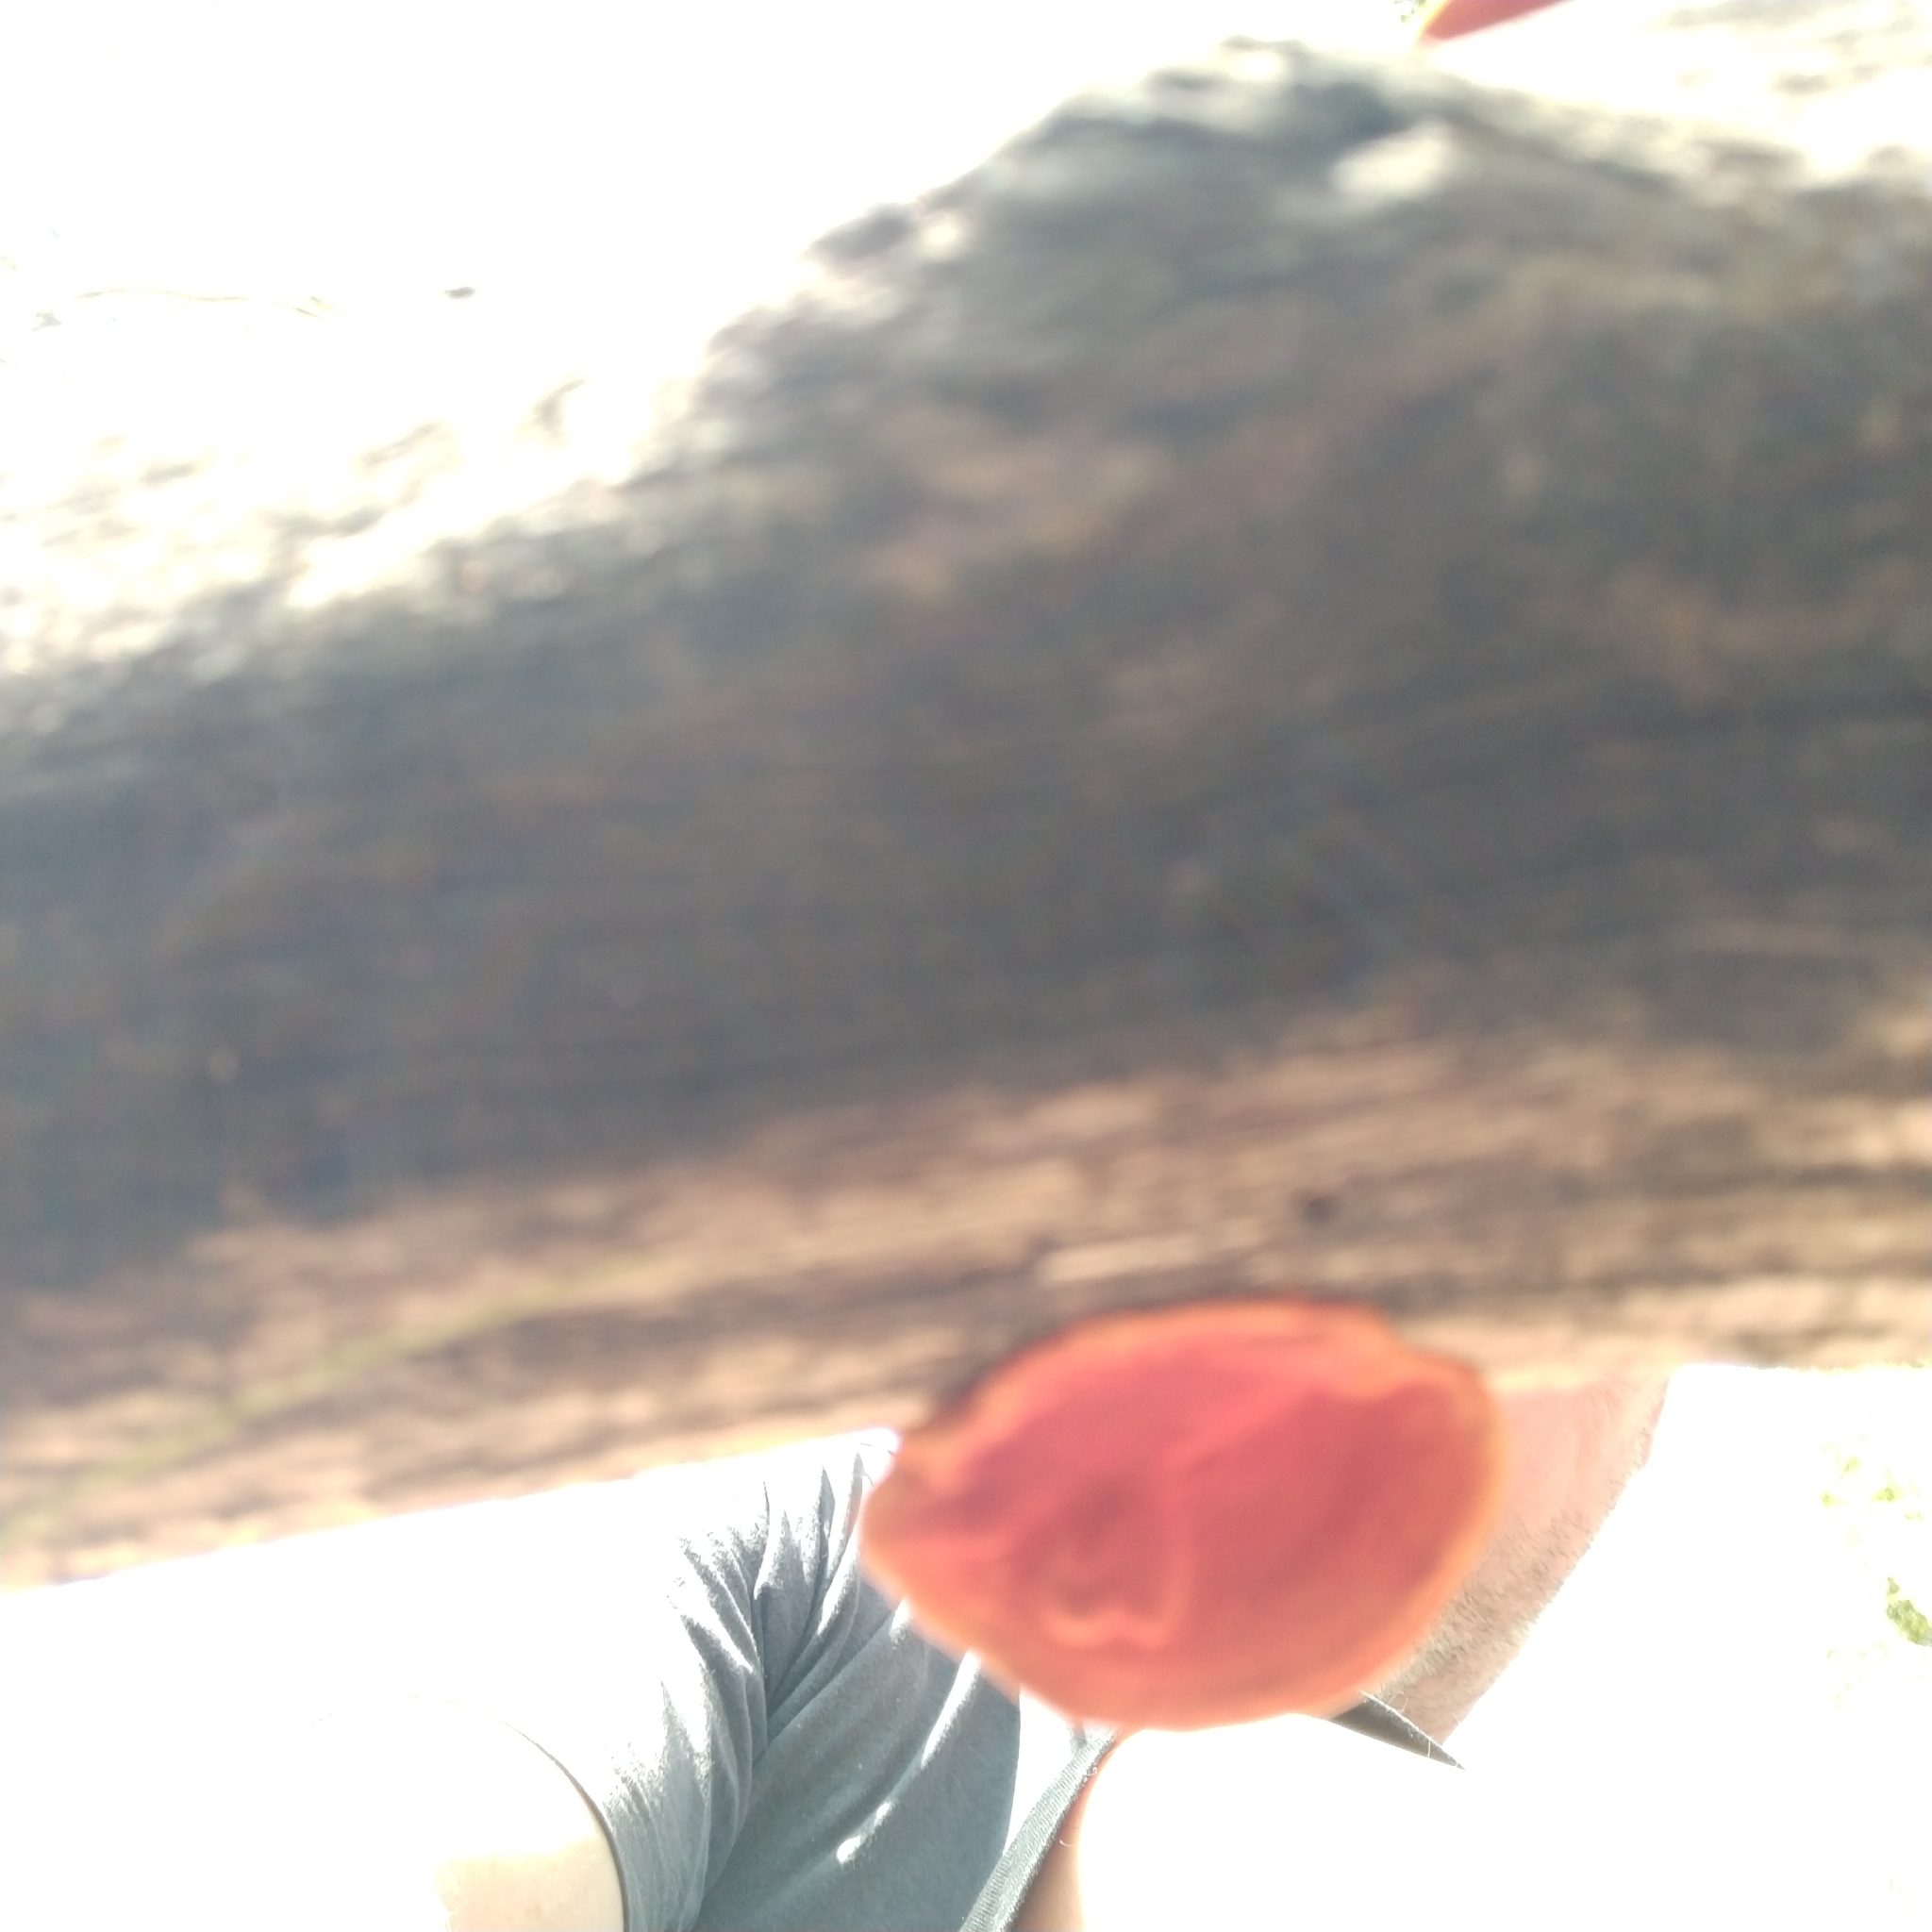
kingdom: Fungi
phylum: Basidiomycota
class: Agaricomycetes
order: Polyporales
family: Polyporaceae
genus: Trametes
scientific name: Trametes coccinea
